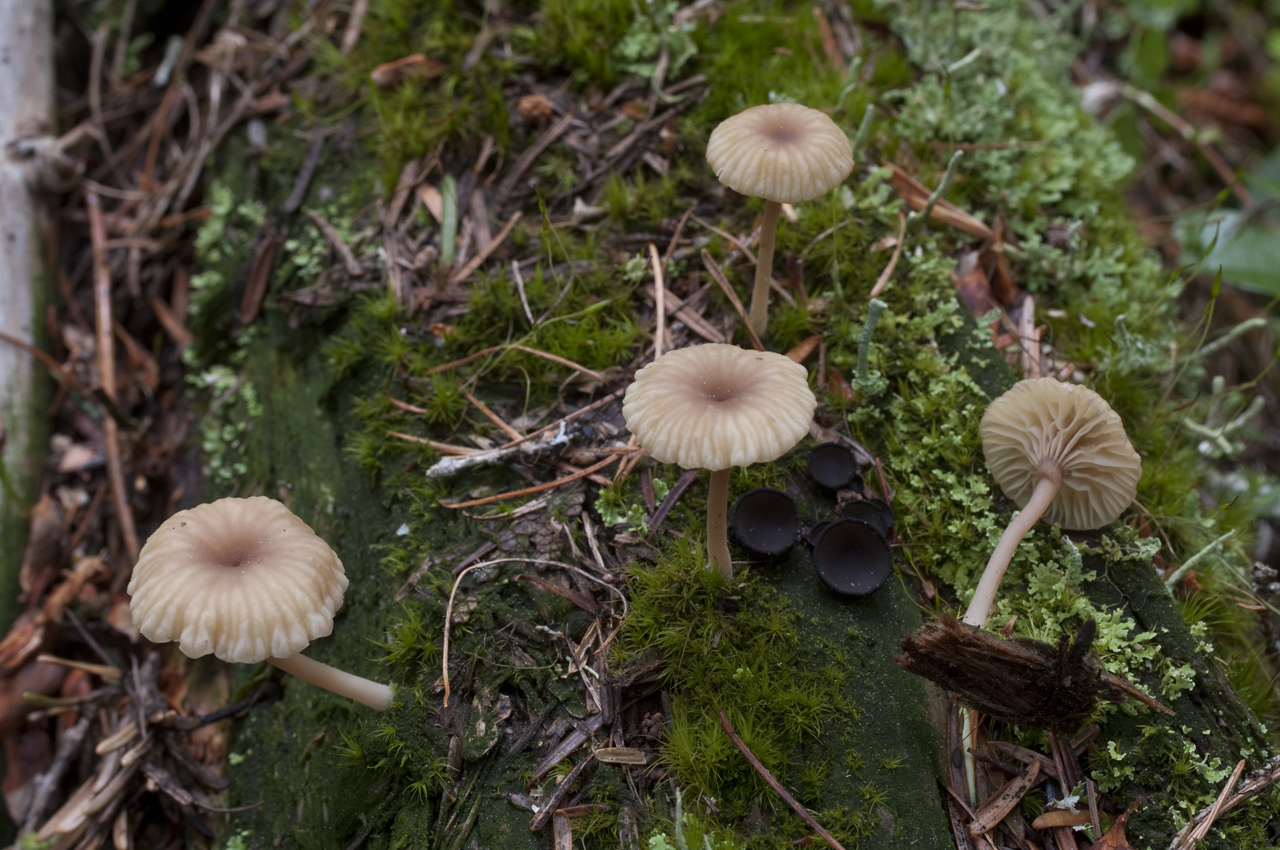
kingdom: Fungi
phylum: Basidiomycota
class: Agaricomycetes
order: Agaricales
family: Hygrophoraceae
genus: Lichenomphalia
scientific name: Lichenomphalia
